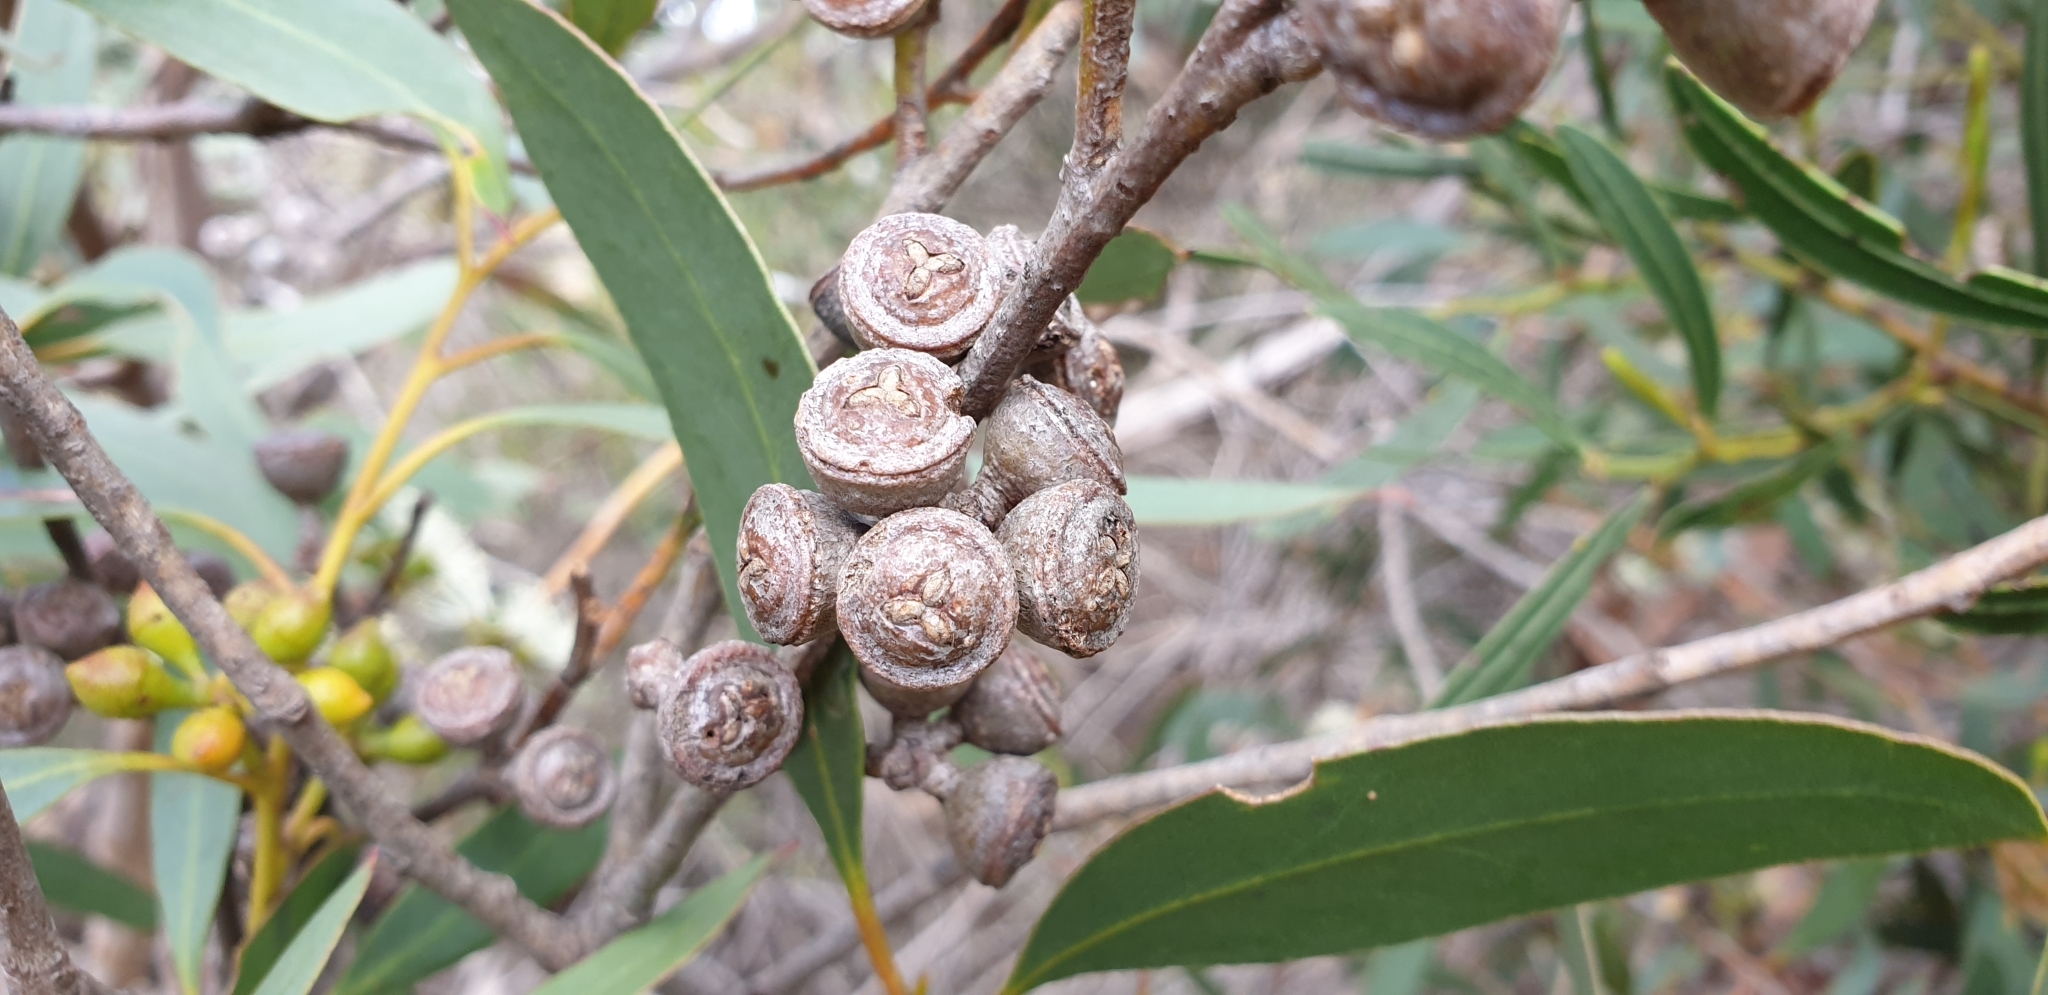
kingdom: Plantae
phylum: Tracheophyta
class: Magnoliopsida
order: Myrtales
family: Myrtaceae
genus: Eucalyptus
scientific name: Eucalyptus diversifolia
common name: Coastal white mallee
